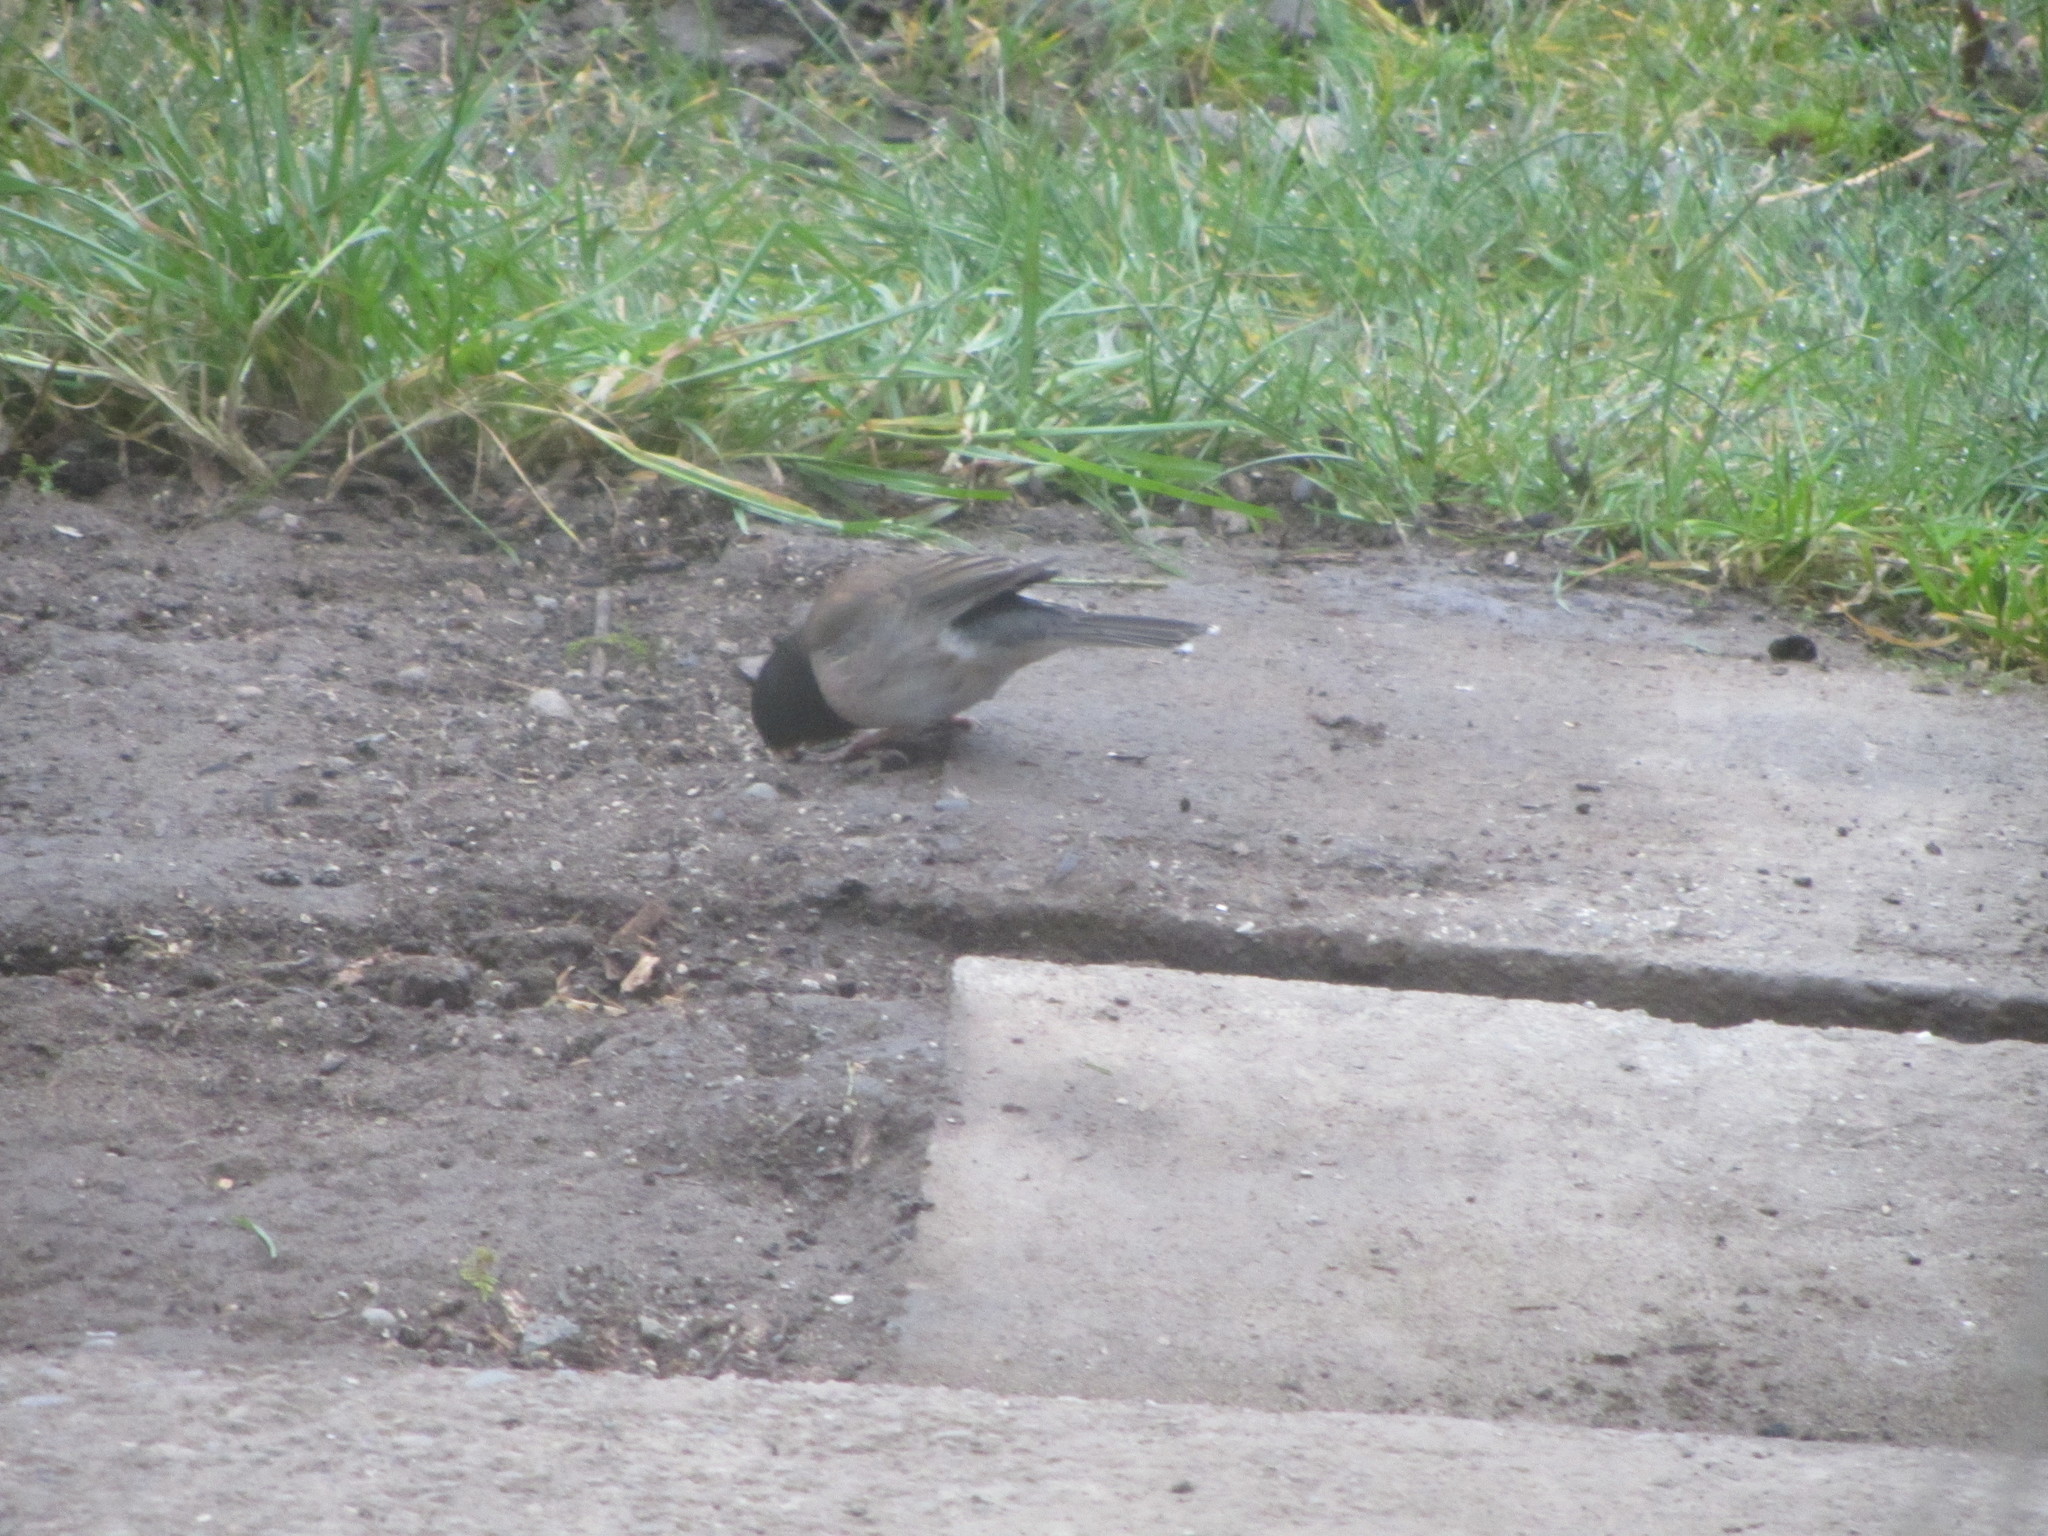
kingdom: Animalia
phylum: Chordata
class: Aves
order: Passeriformes
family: Passerellidae
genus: Junco
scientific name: Junco hyemalis
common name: Dark-eyed junco
